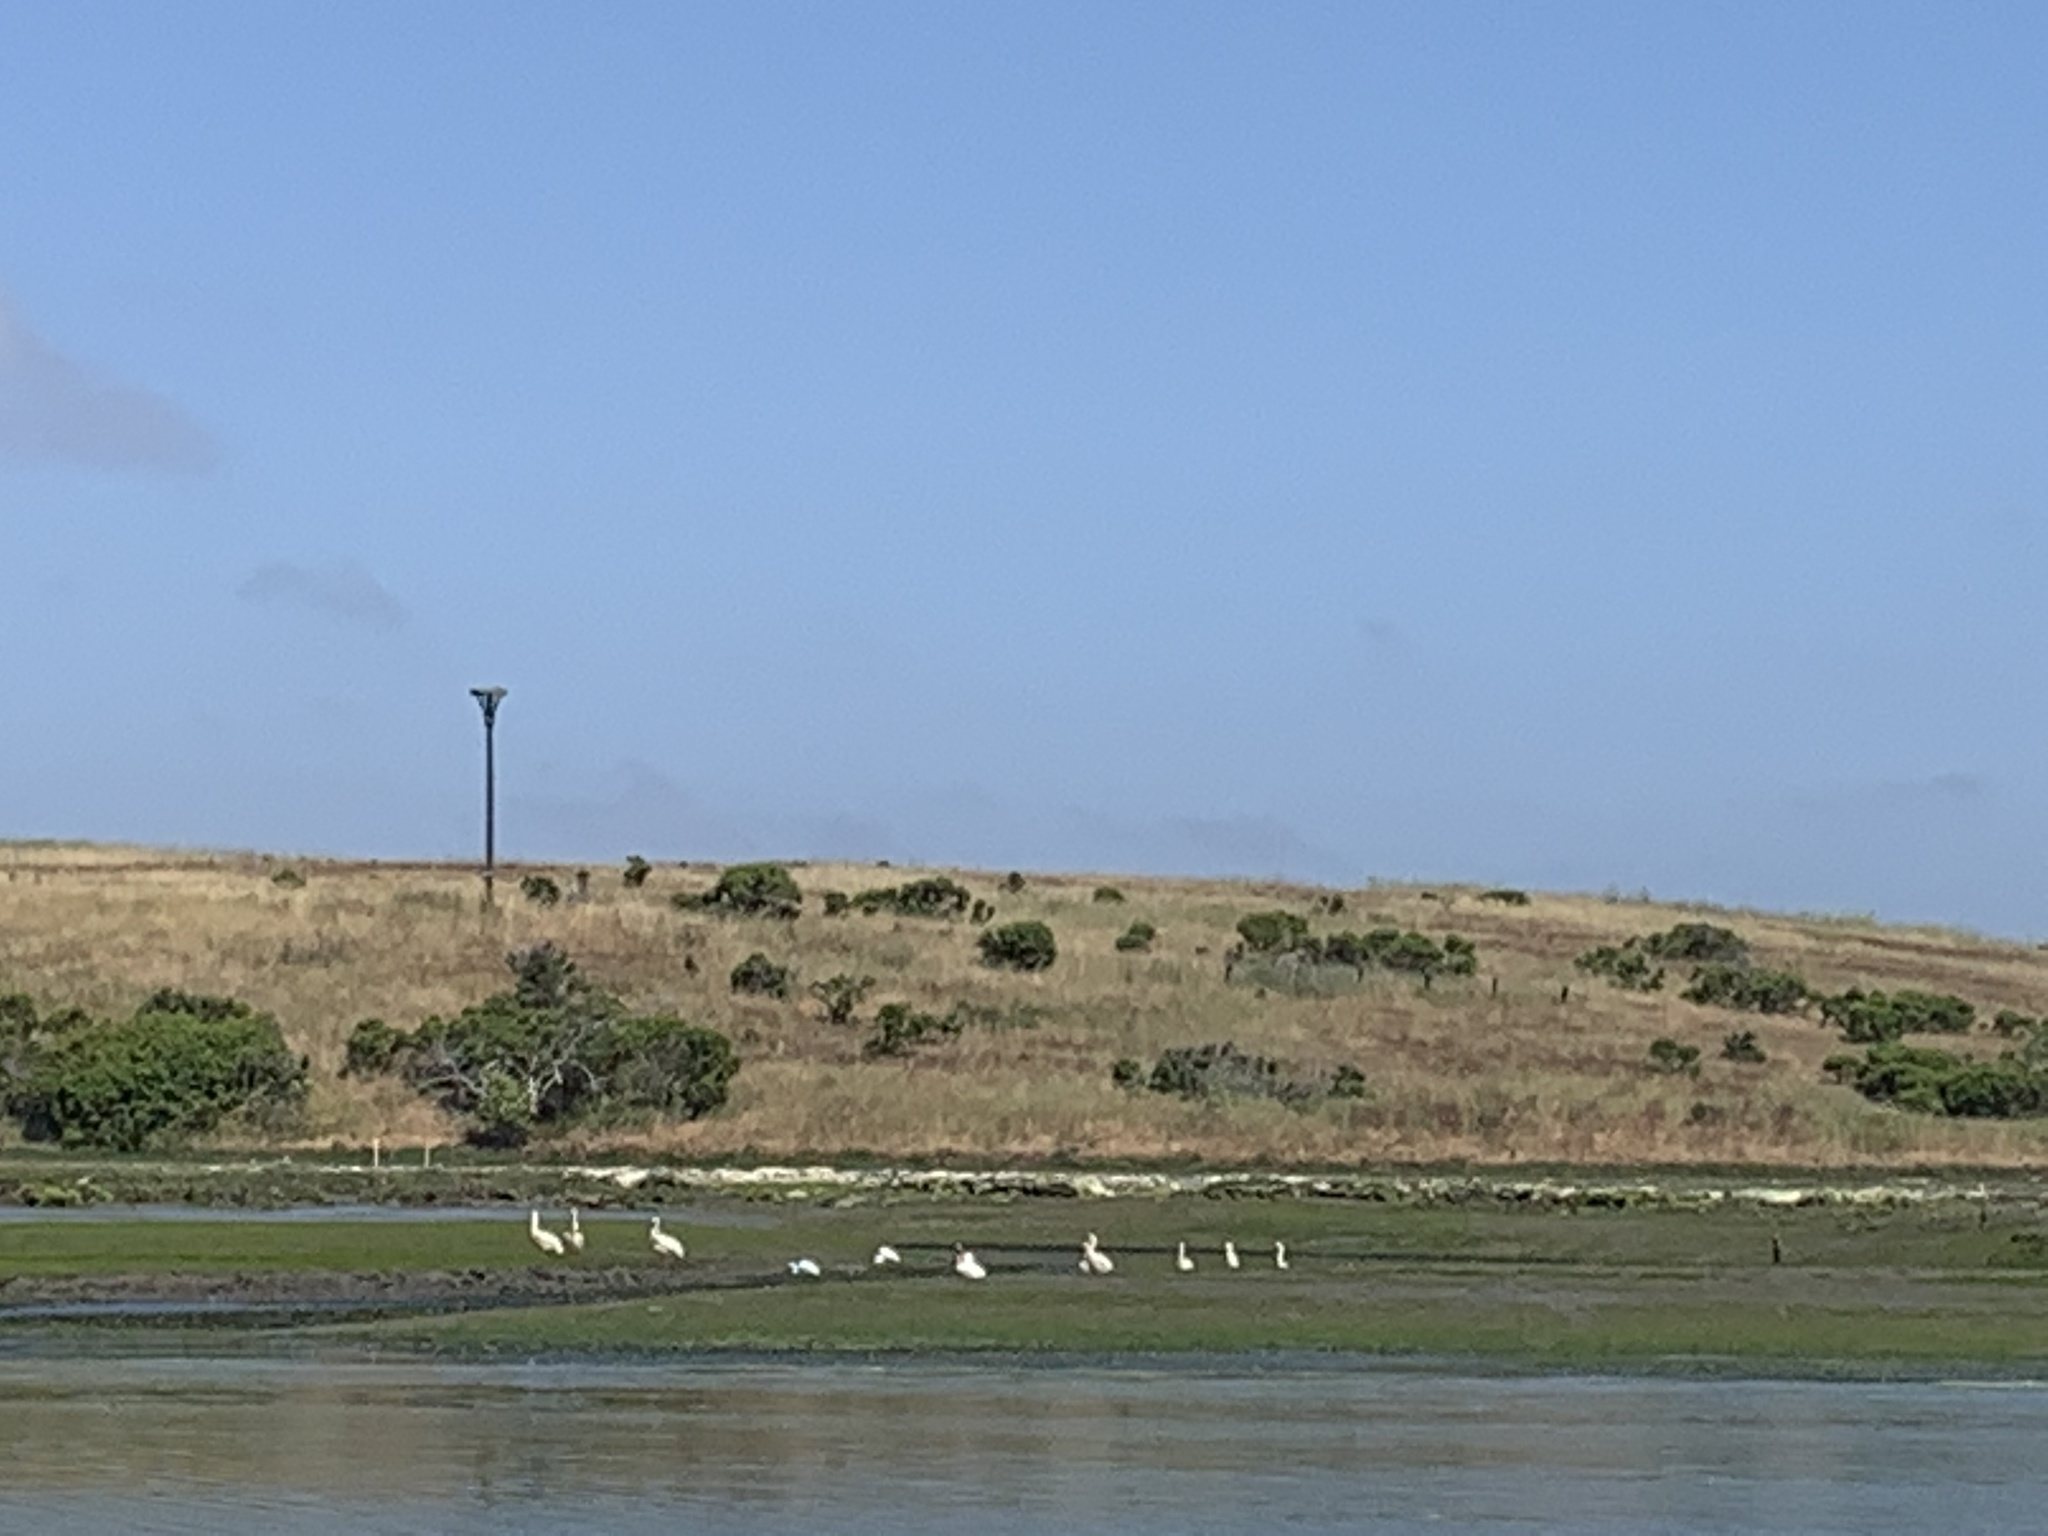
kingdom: Animalia
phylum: Chordata
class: Aves
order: Pelecaniformes
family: Pelecanidae
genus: Pelecanus
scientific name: Pelecanus erythrorhynchos
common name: American white pelican
